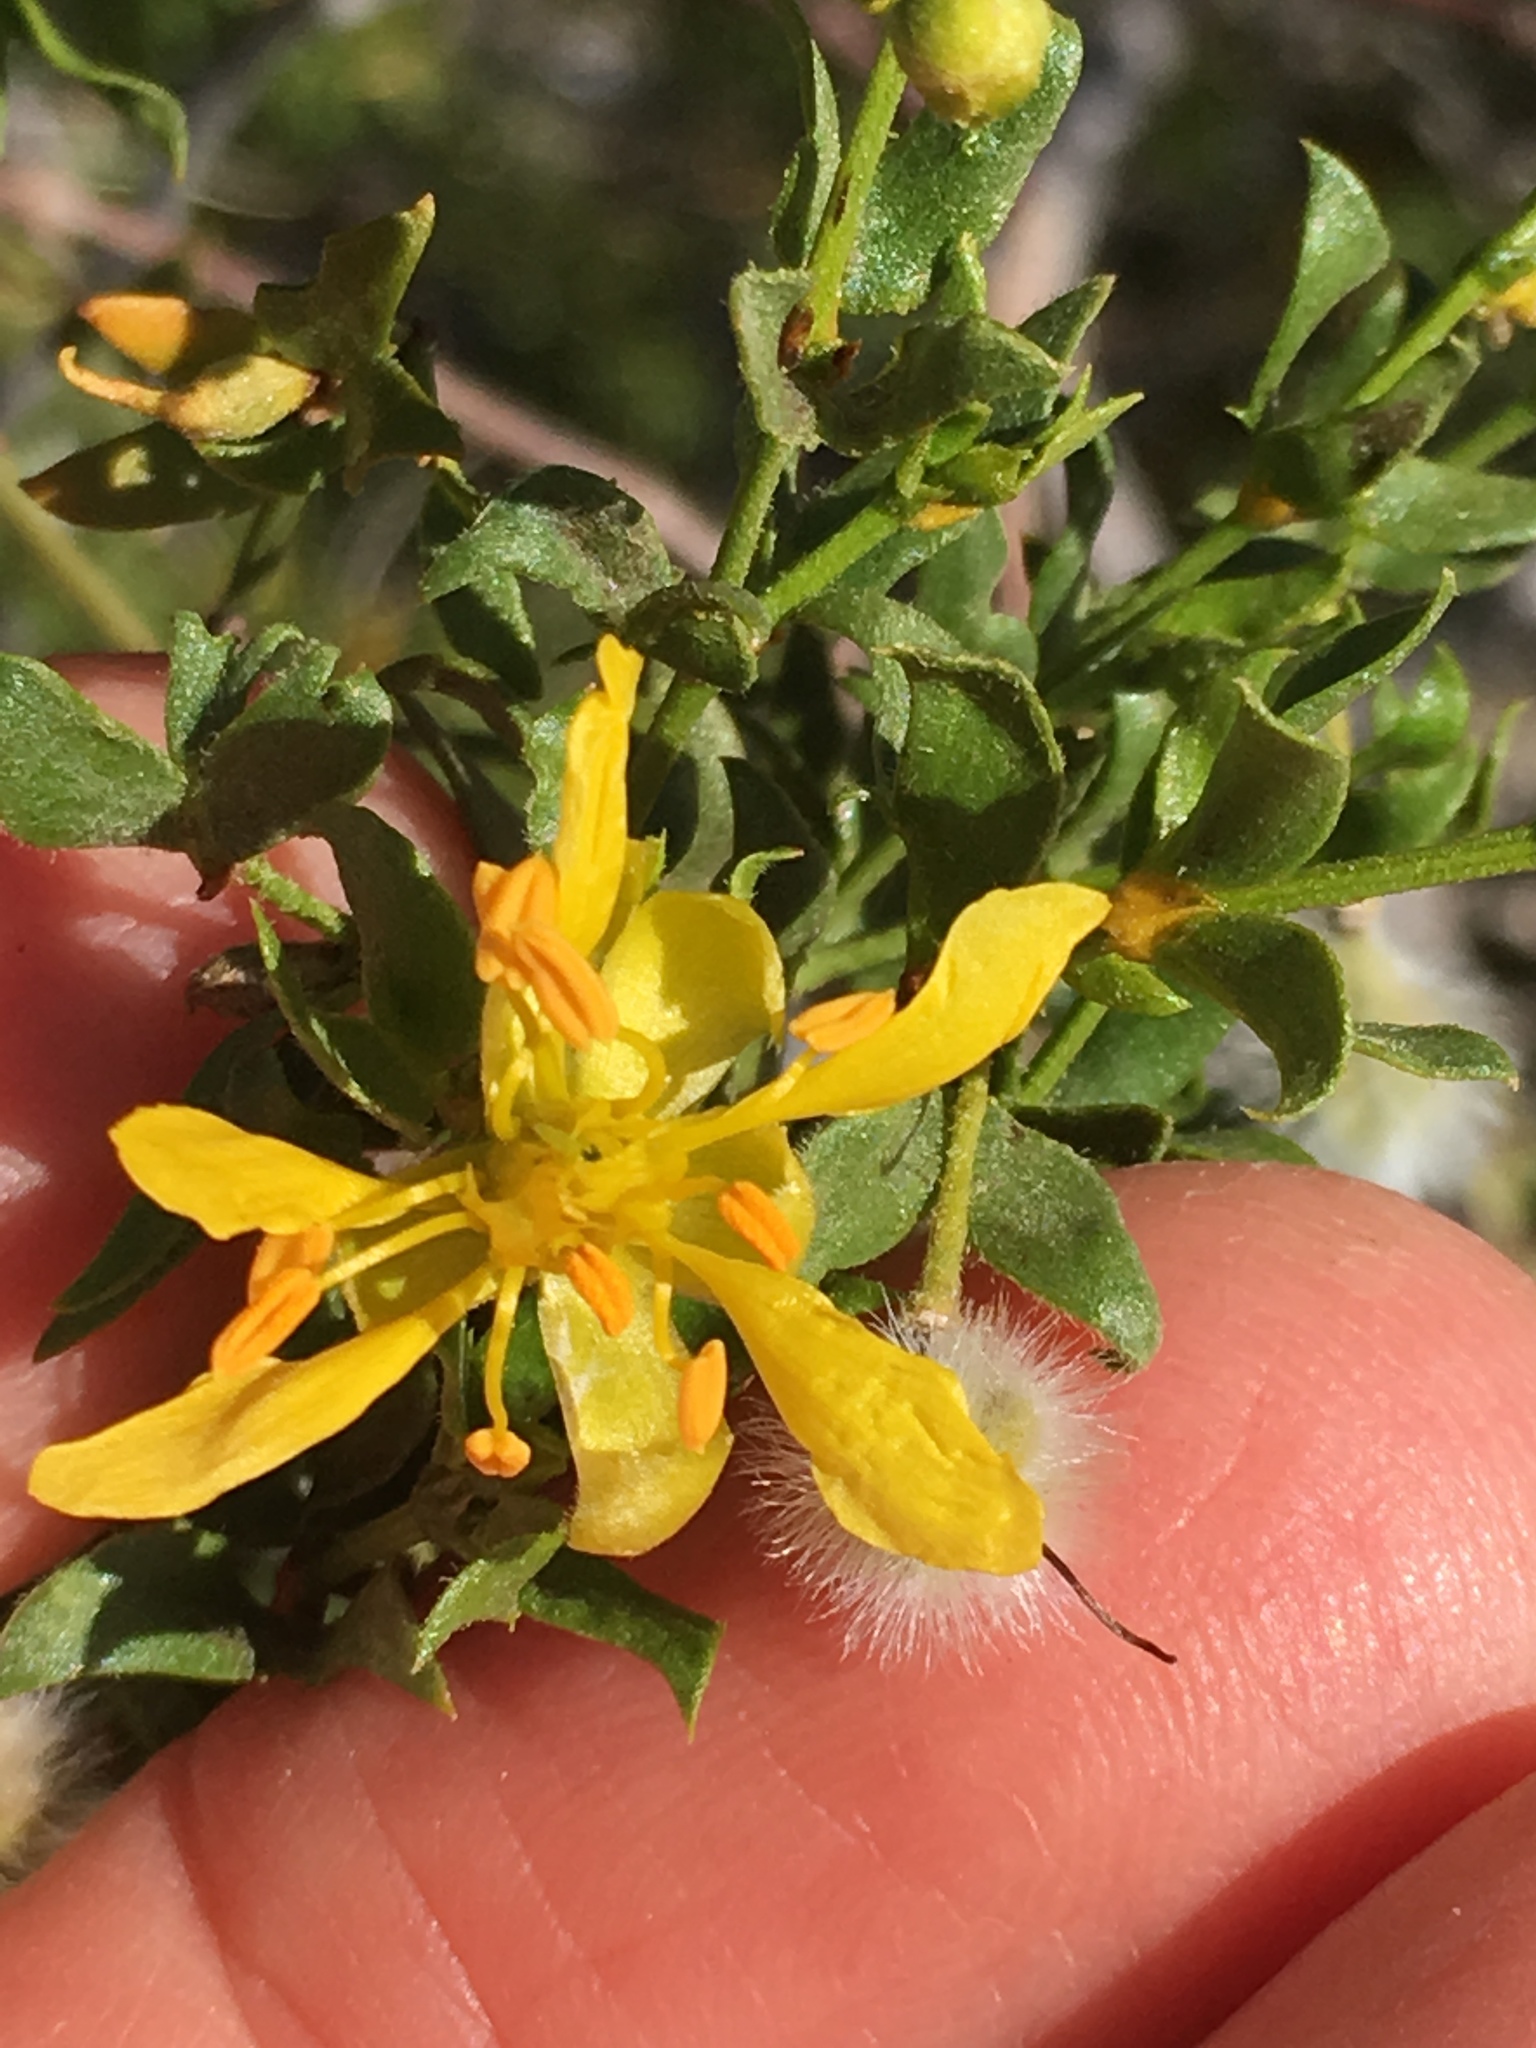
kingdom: Plantae
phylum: Tracheophyta
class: Magnoliopsida
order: Zygophyllales
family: Zygophyllaceae
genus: Larrea
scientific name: Larrea tridentata
